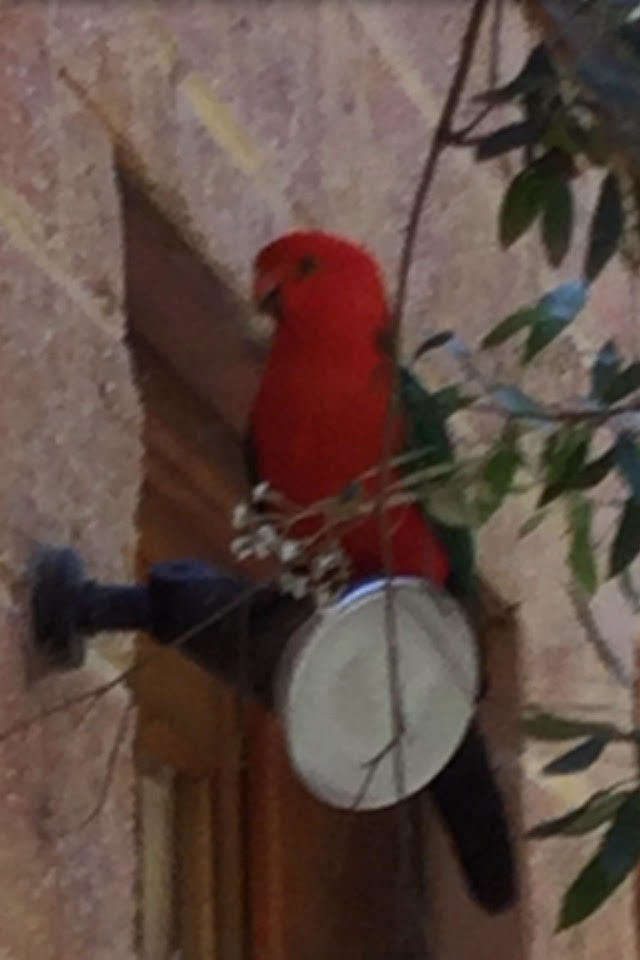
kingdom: Animalia
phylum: Chordata
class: Aves
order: Psittaciformes
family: Psittacidae
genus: Alisterus
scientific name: Alisterus scapularis
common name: Australian king parrot
